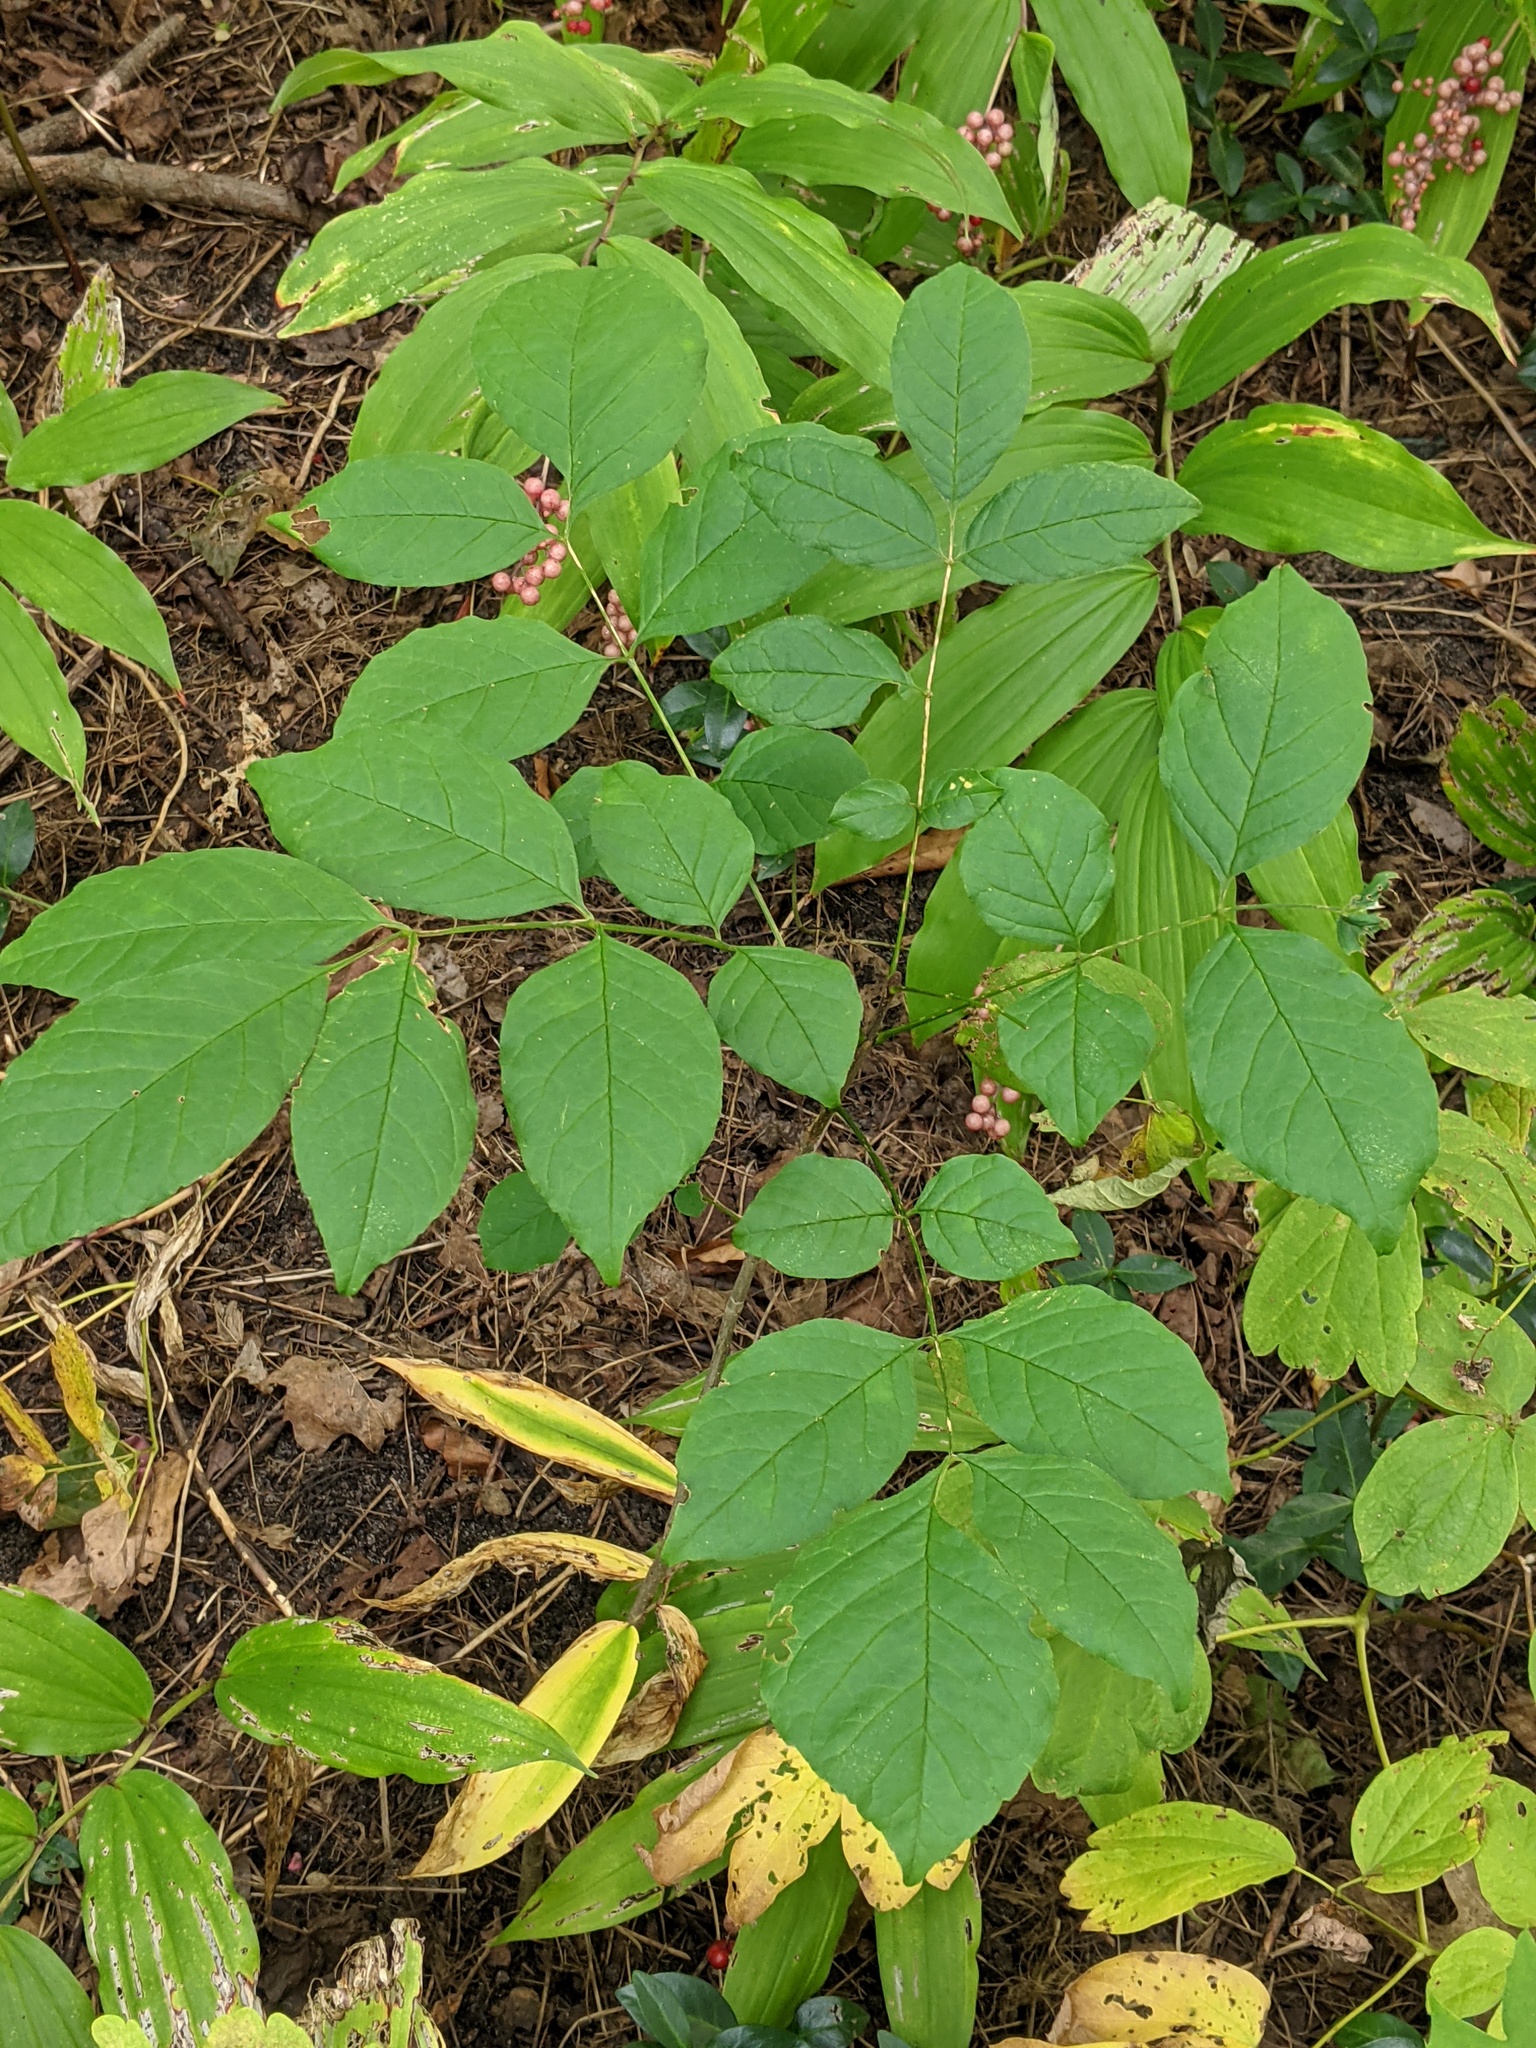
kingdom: Plantae
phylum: Tracheophyta
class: Magnoliopsida
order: Lamiales
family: Oleaceae
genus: Fraxinus
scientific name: Fraxinus pennsylvanica
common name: Green ash
